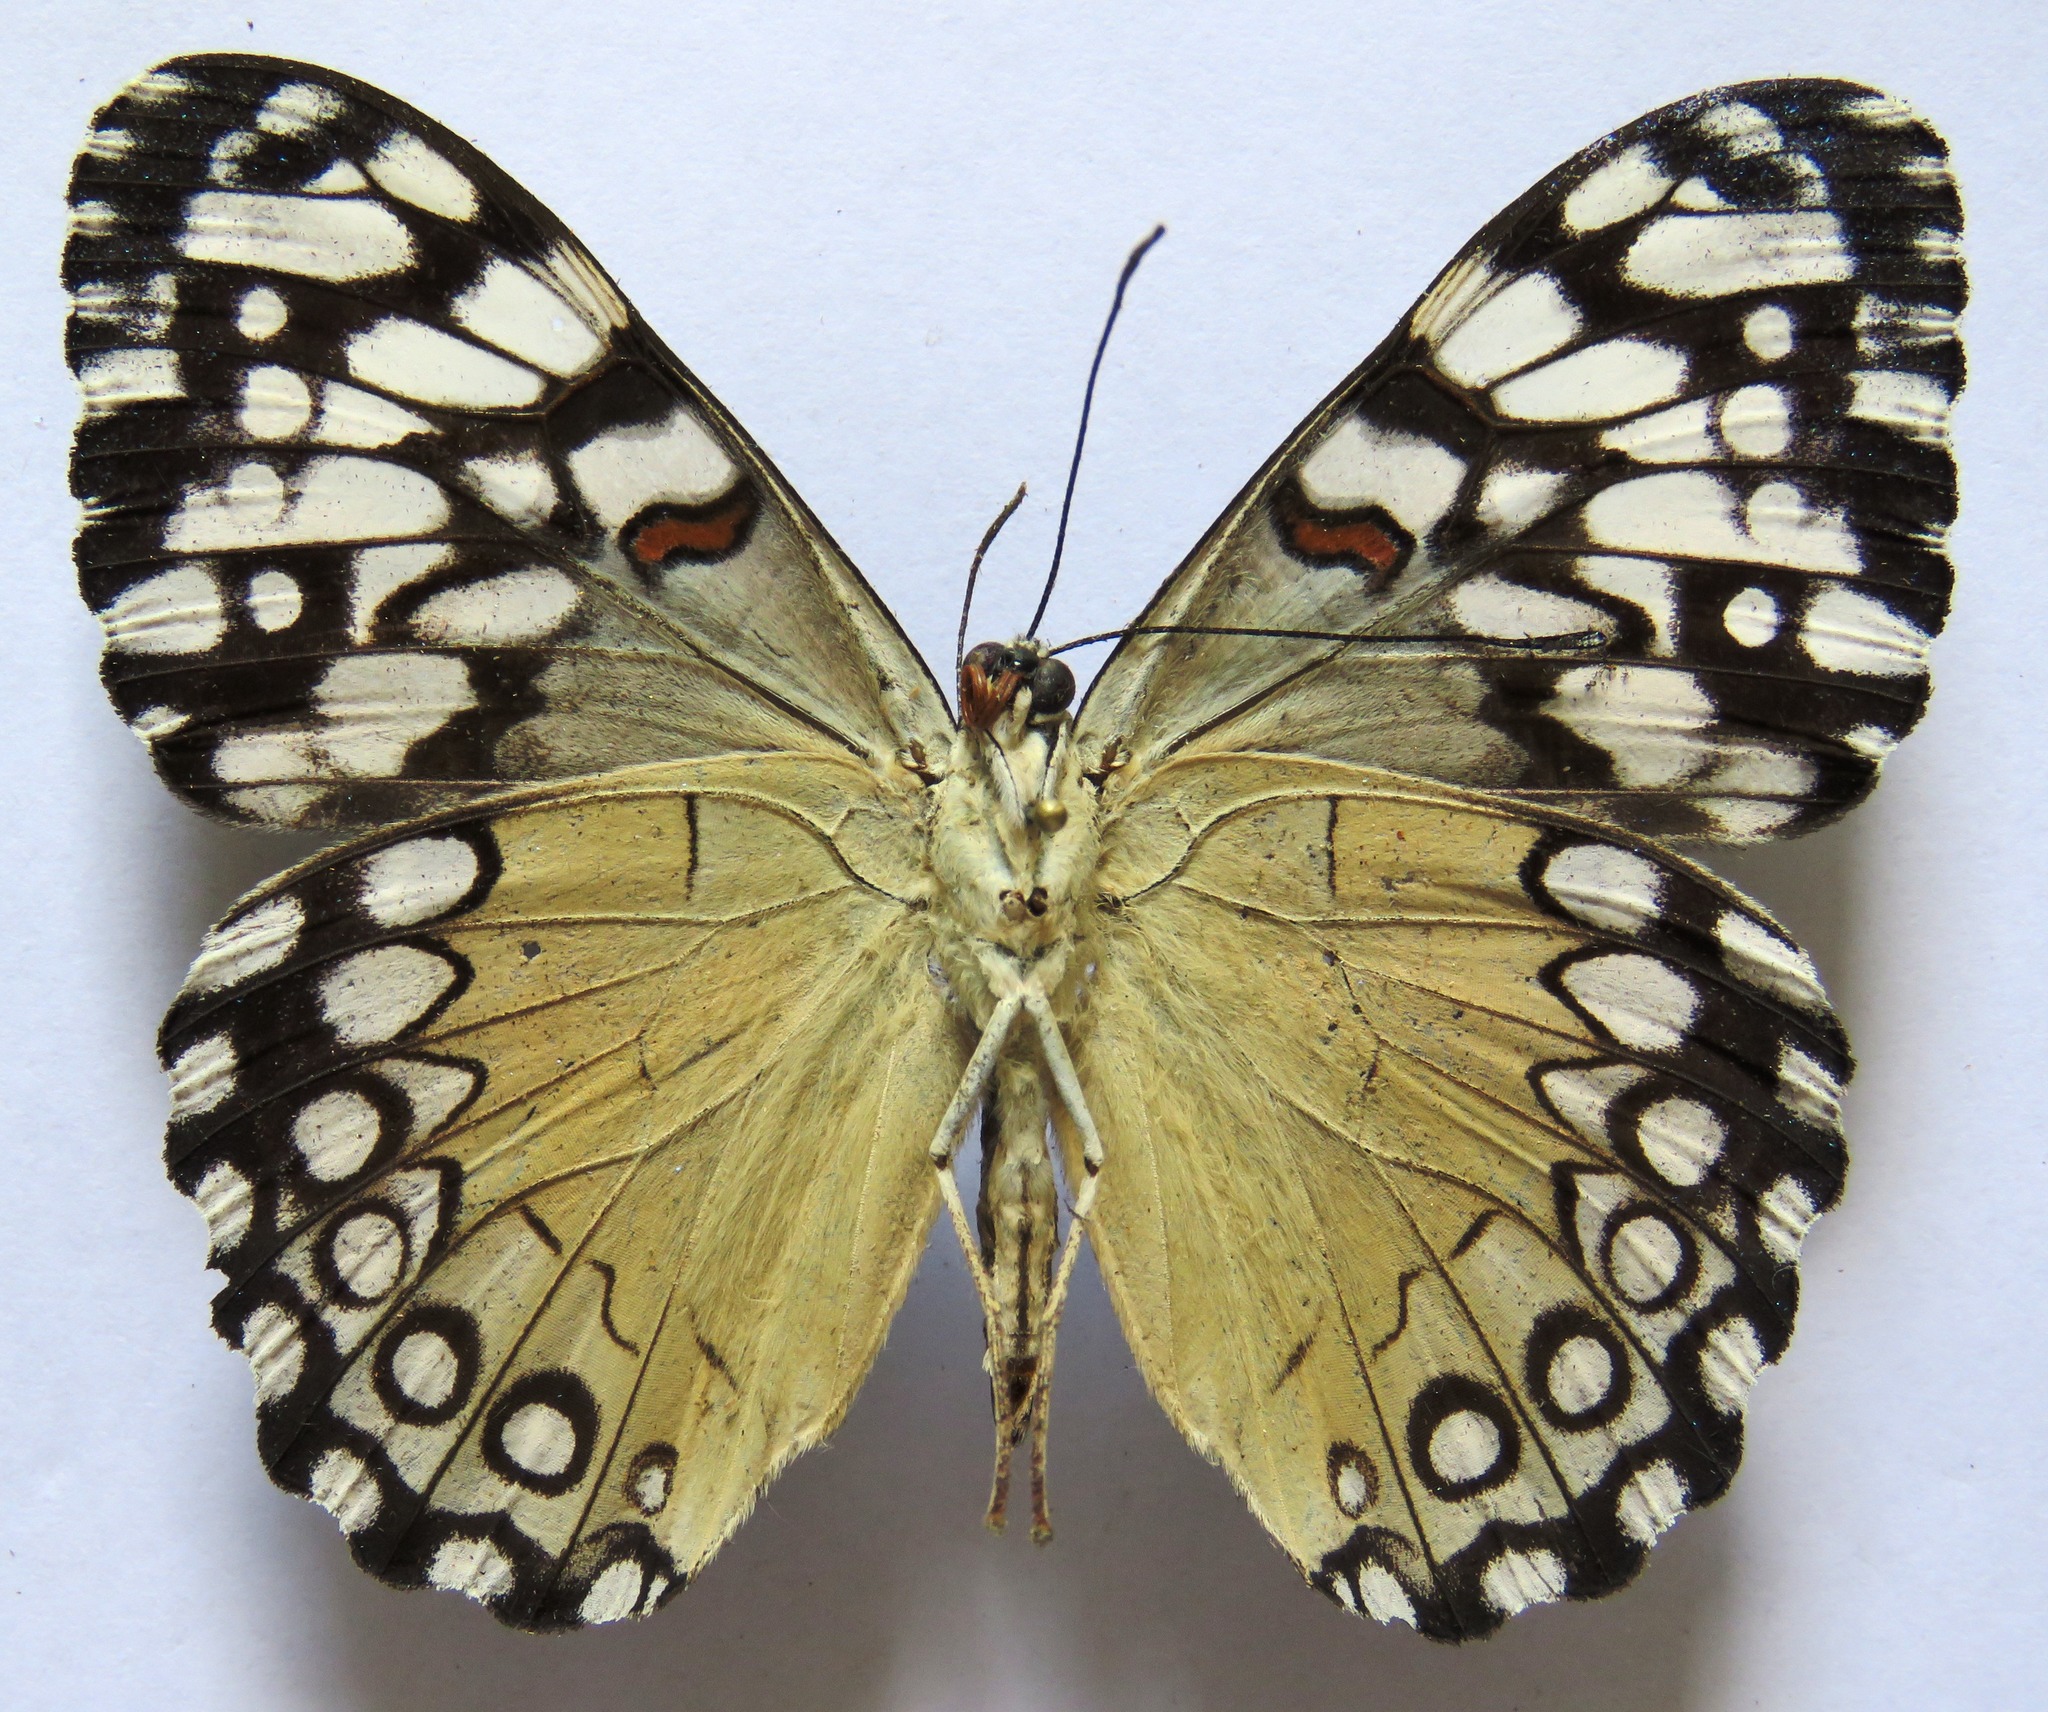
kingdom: Animalia
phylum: Arthropoda
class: Insecta
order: Lepidoptera
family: Nymphalidae
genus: Hamadryas
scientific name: Hamadryas guatemalena
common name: Guatemalan cracker
